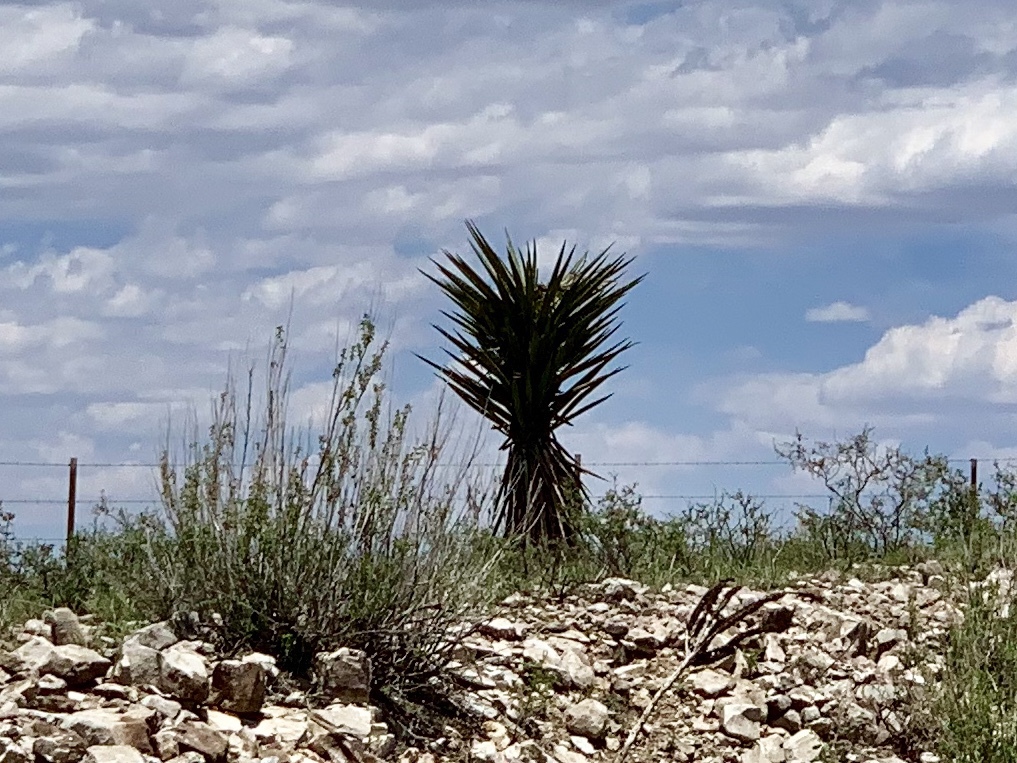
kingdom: Plantae
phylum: Tracheophyta
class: Liliopsida
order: Asparagales
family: Asparagaceae
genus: Yucca
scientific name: Yucca treculiana
